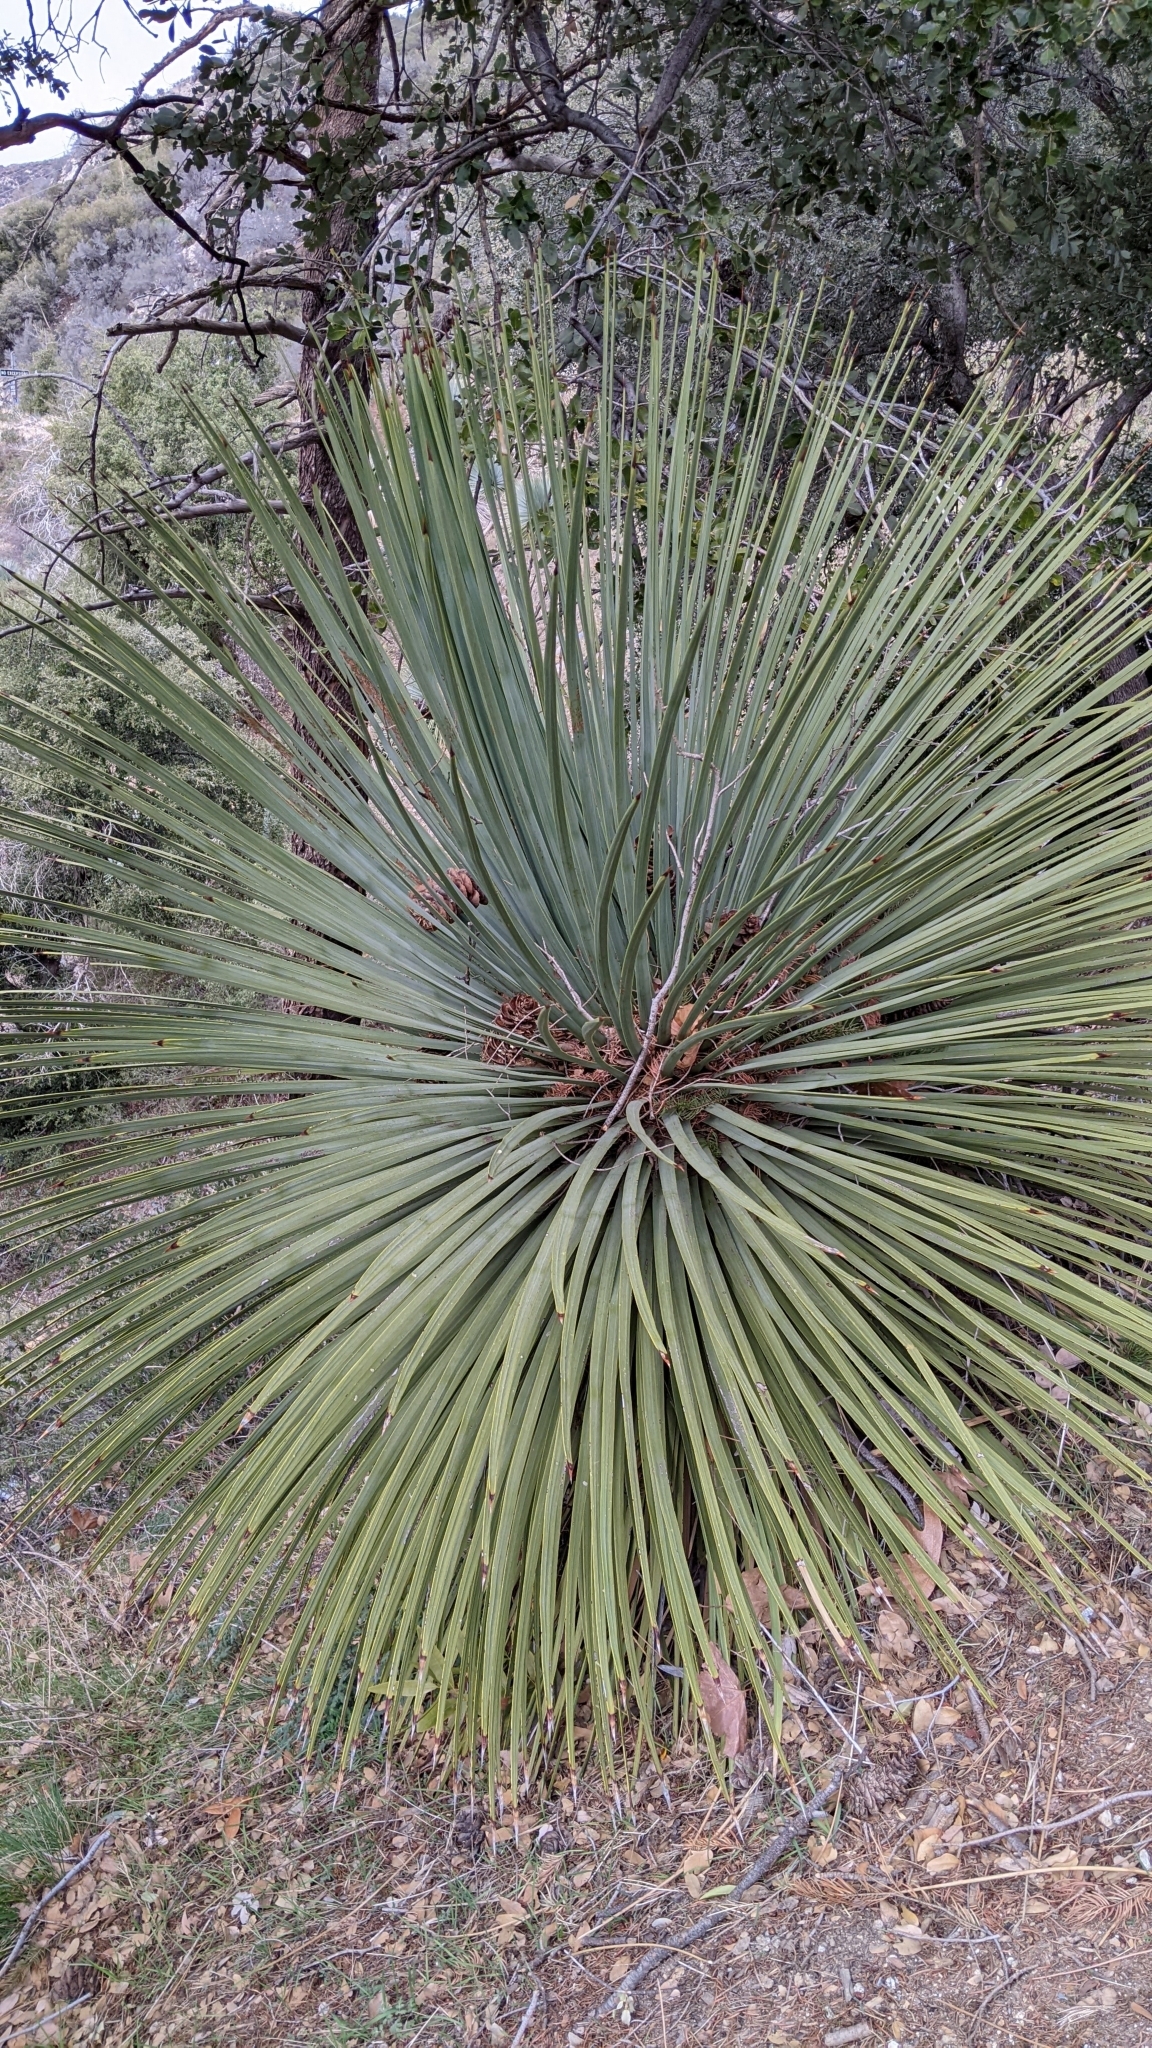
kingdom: Plantae
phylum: Tracheophyta
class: Liliopsida
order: Asparagales
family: Asparagaceae
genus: Hesperoyucca
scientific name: Hesperoyucca whipplei
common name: Our lord's-candle
